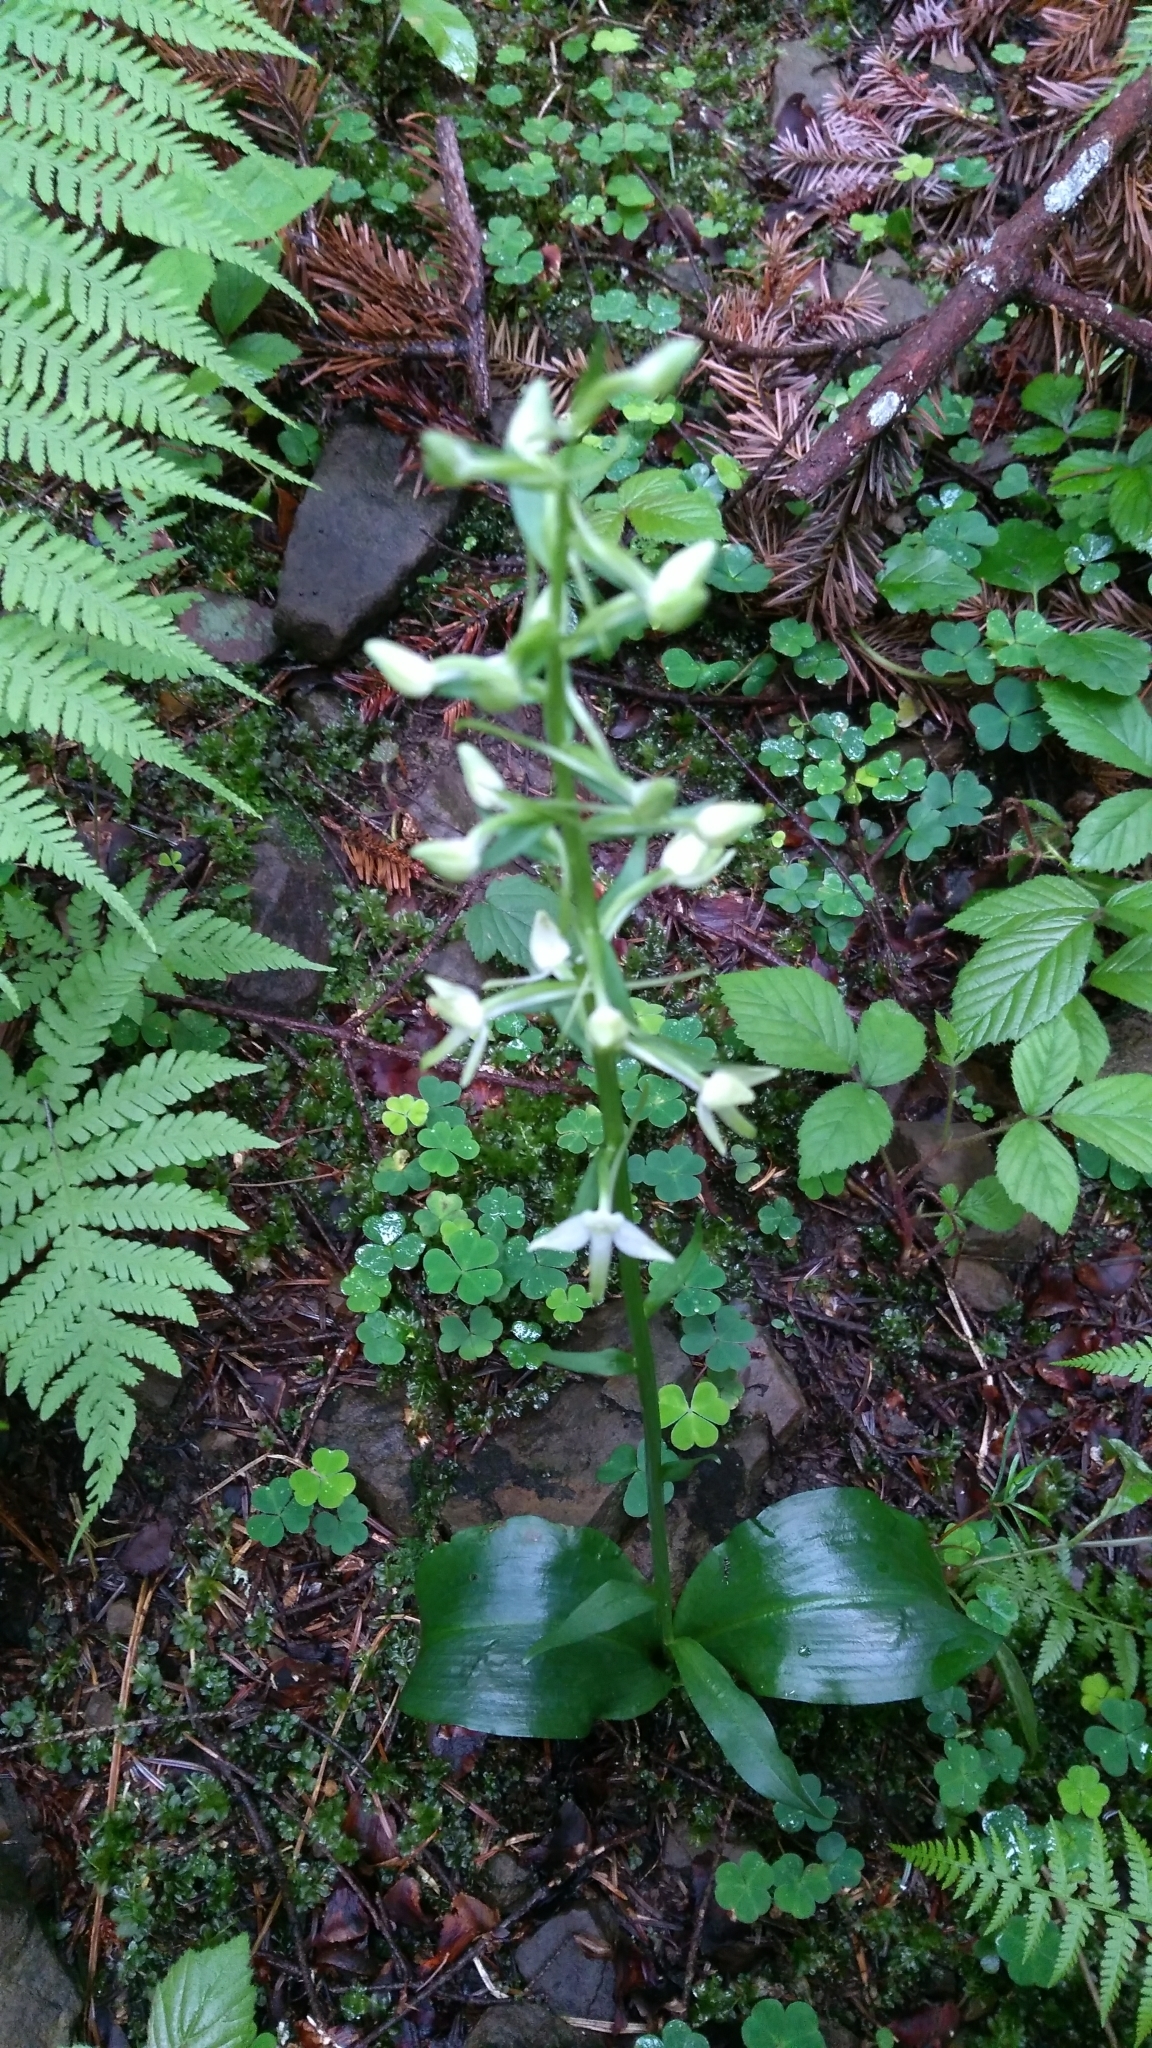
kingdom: Plantae
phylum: Tracheophyta
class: Liliopsida
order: Asparagales
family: Orchidaceae
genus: Platanthera
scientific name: Platanthera bifolia
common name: Lesser butterfly-orchid
